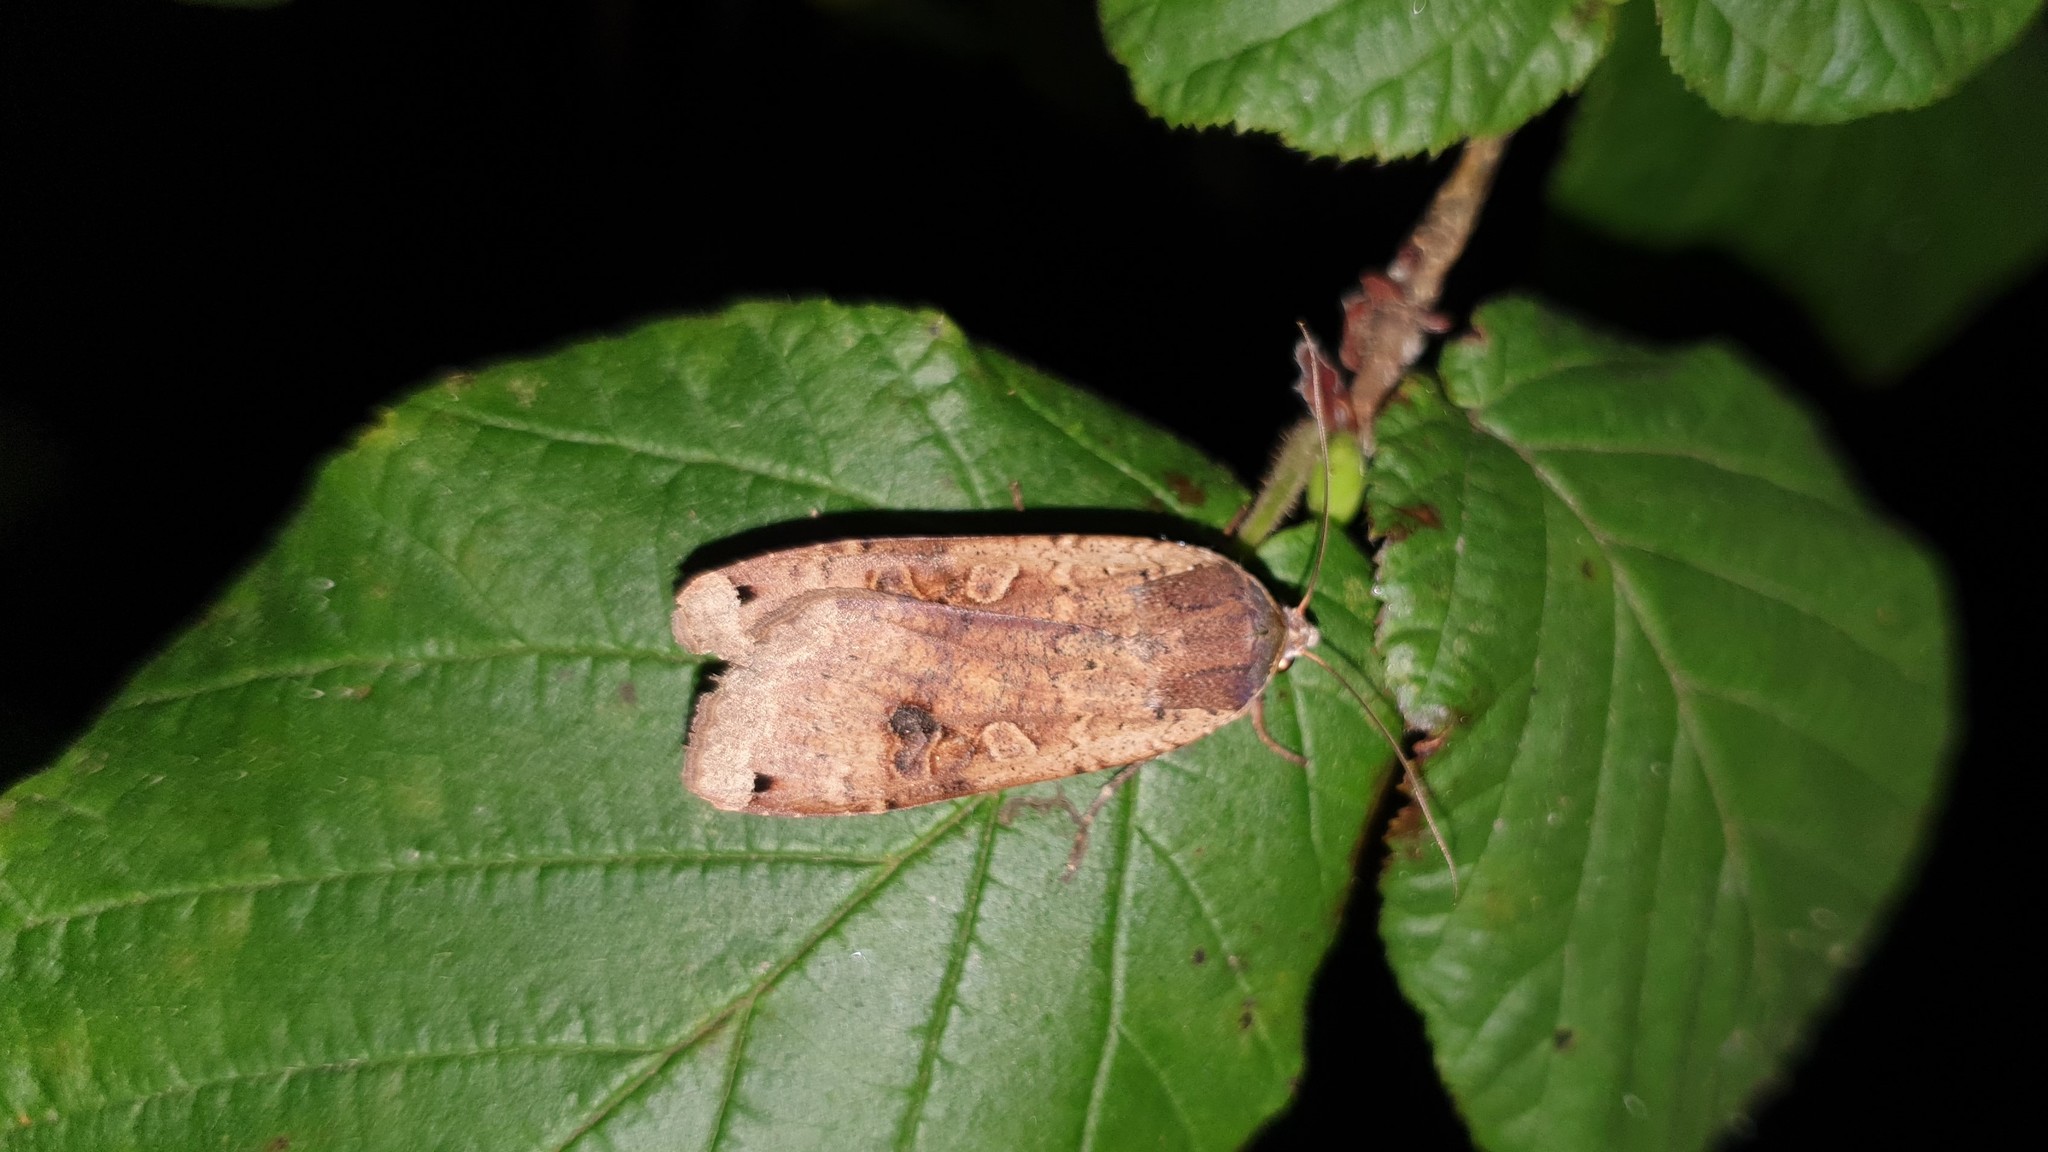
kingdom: Animalia
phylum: Arthropoda
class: Insecta
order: Lepidoptera
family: Noctuidae
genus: Noctua
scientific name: Noctua pronuba
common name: Large yellow underwing
